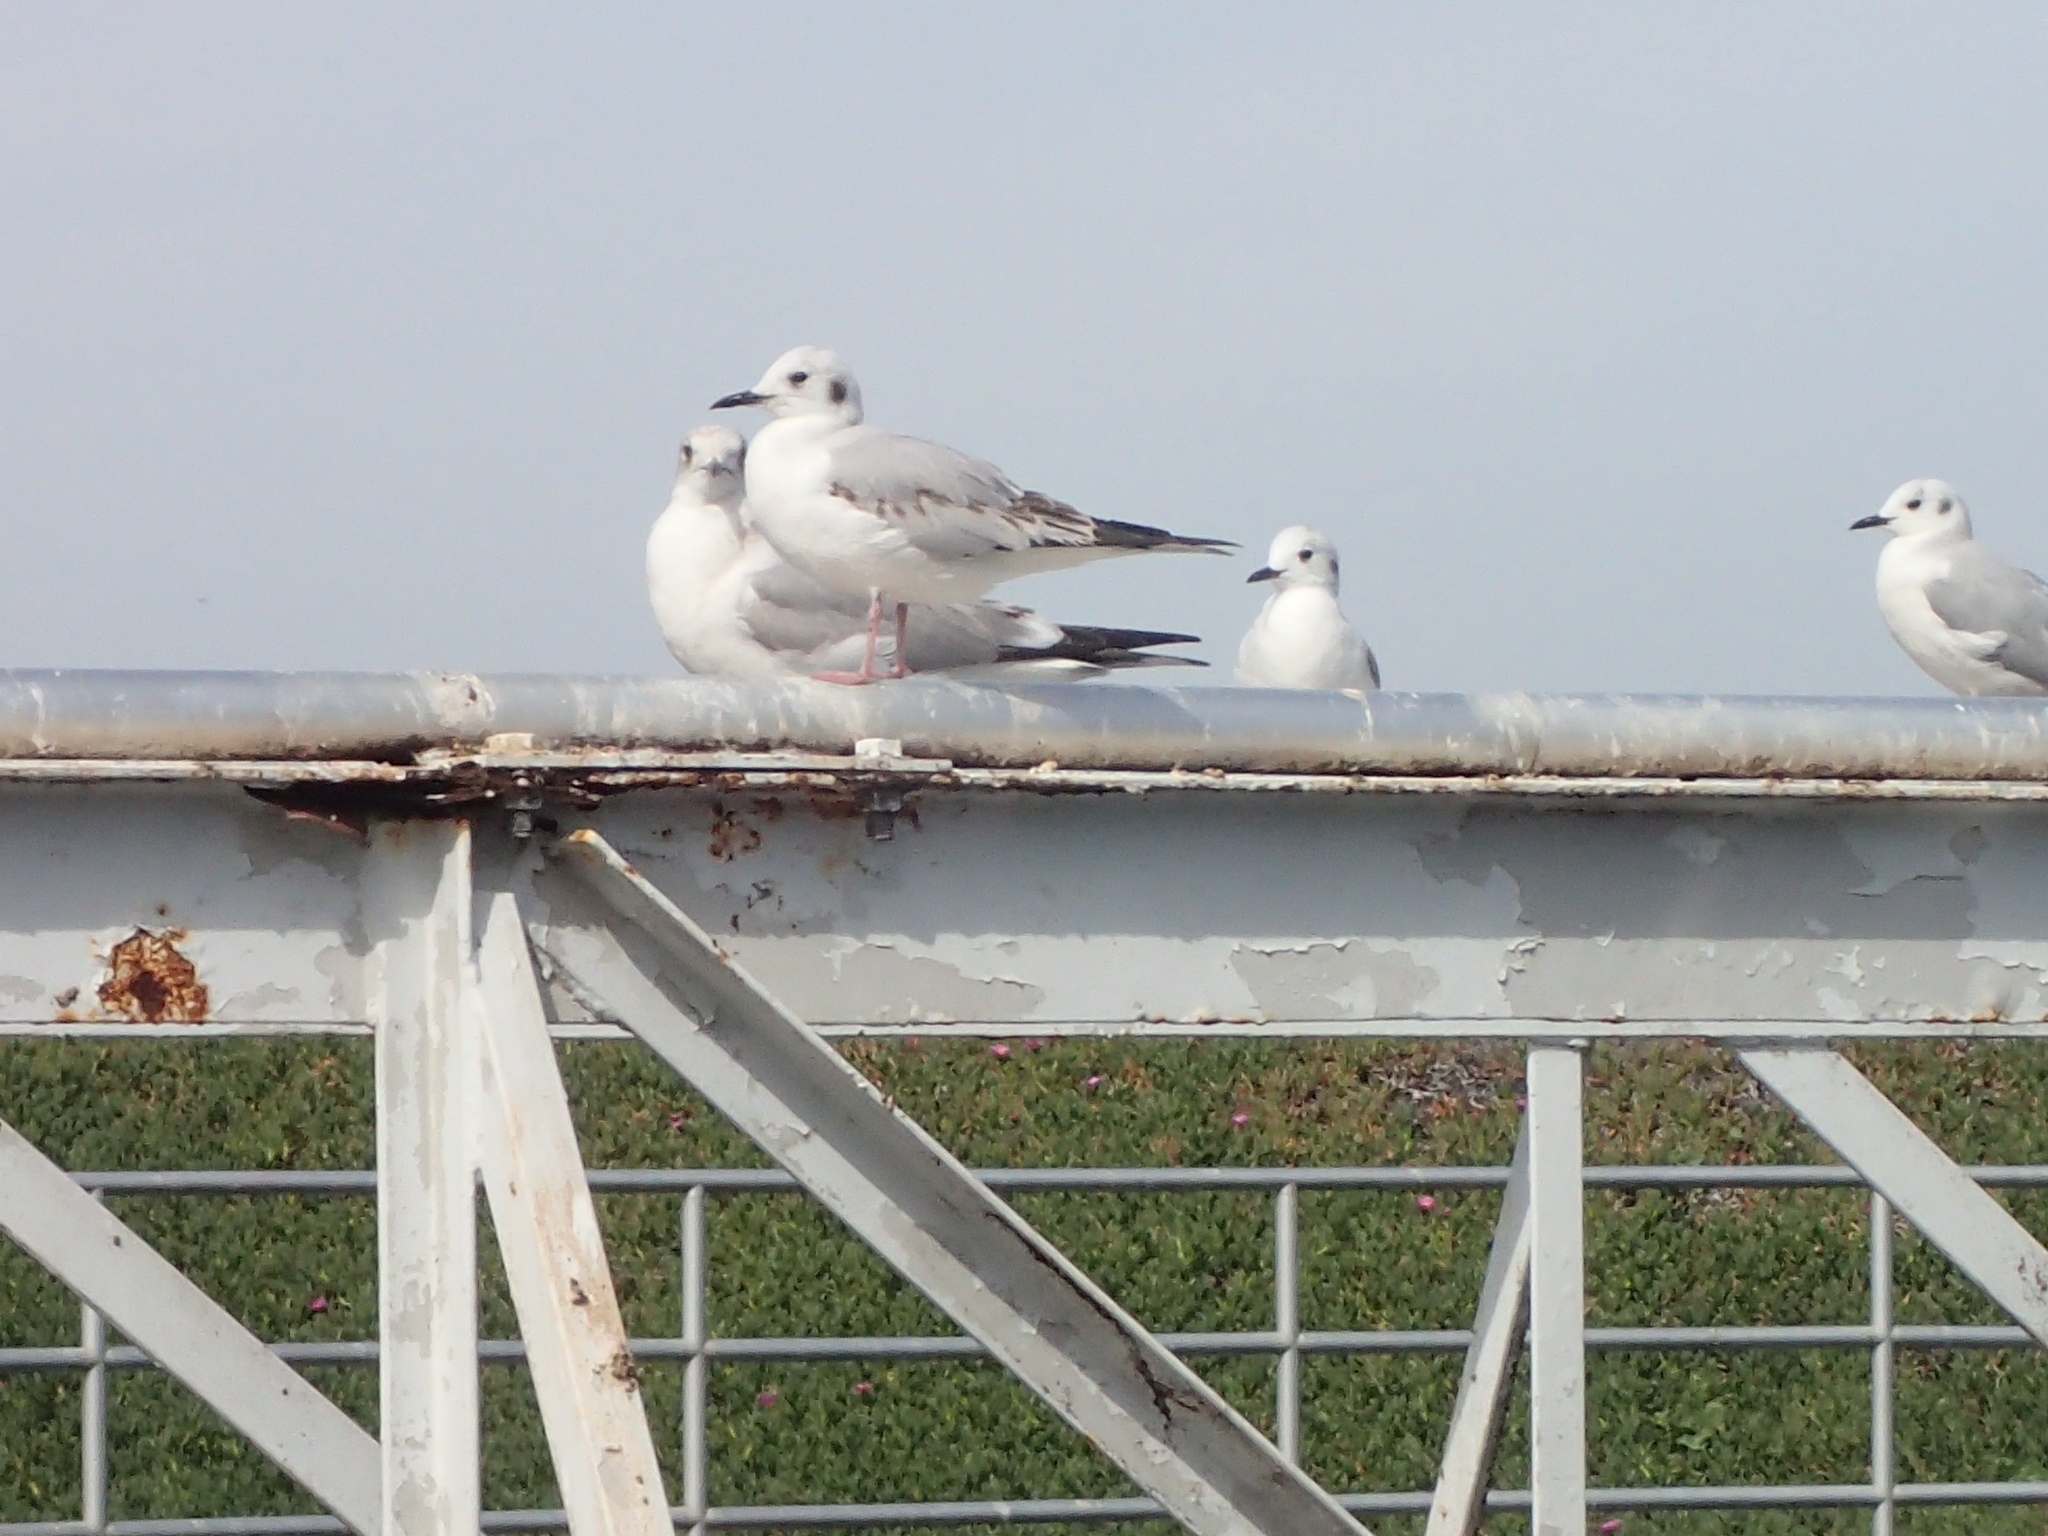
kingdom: Animalia
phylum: Chordata
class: Aves
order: Charadriiformes
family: Laridae
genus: Chroicocephalus
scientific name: Chroicocephalus philadelphia
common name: Bonaparte's gull
